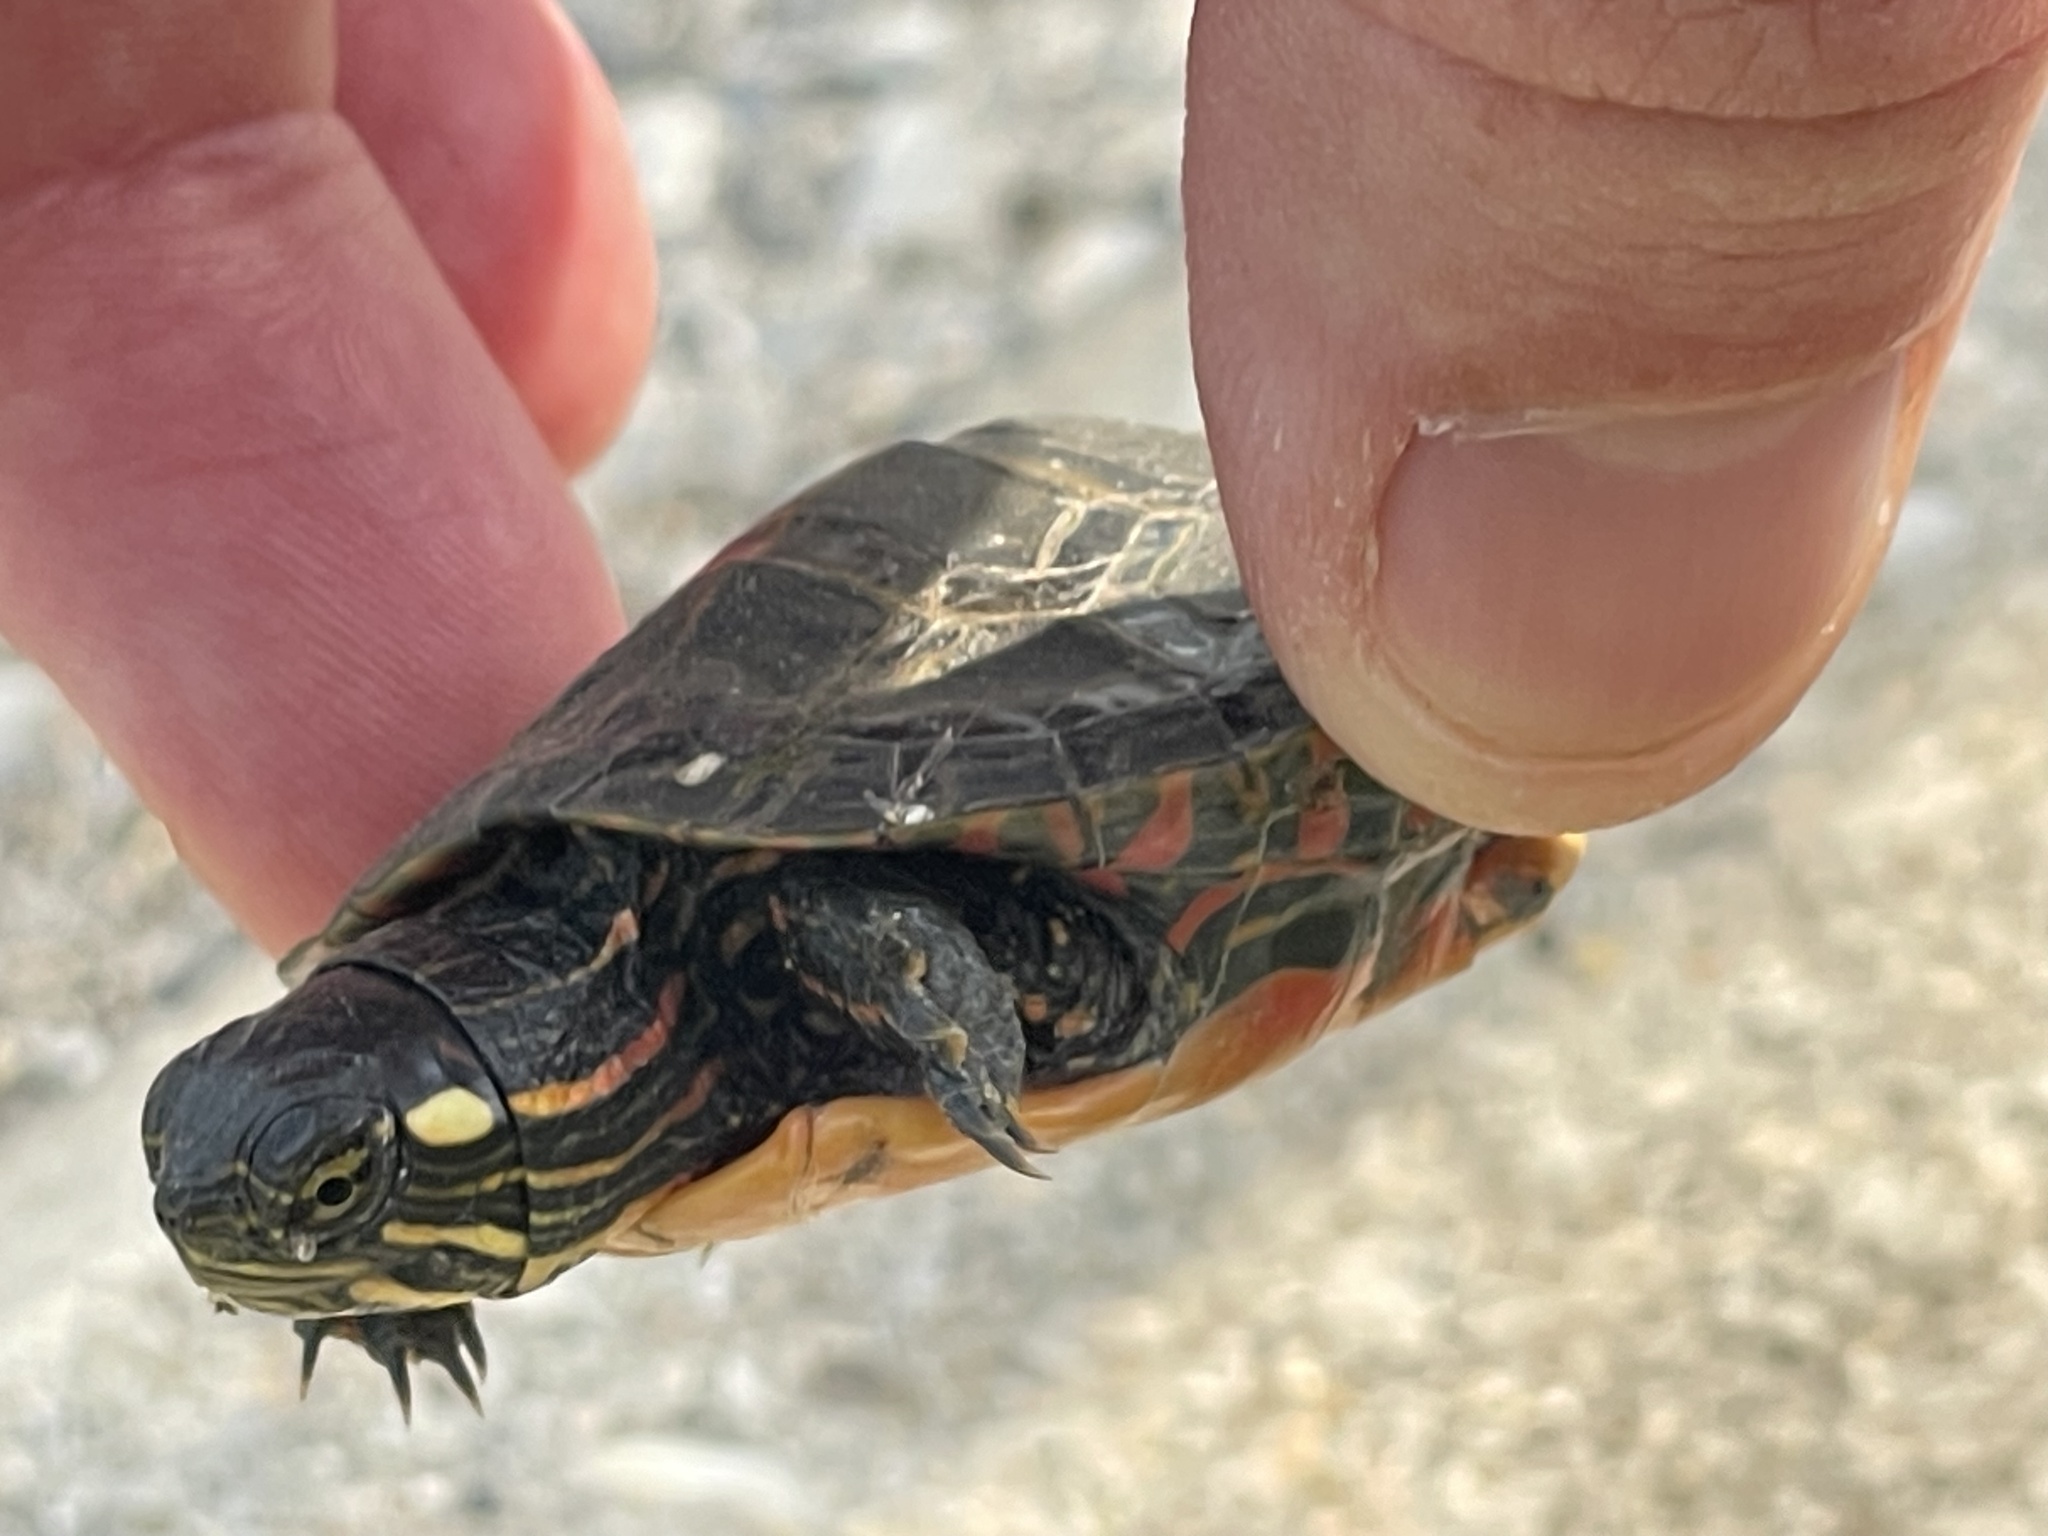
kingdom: Animalia
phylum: Chordata
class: Testudines
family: Emydidae
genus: Chrysemys
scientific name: Chrysemys picta
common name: Painted turtle
